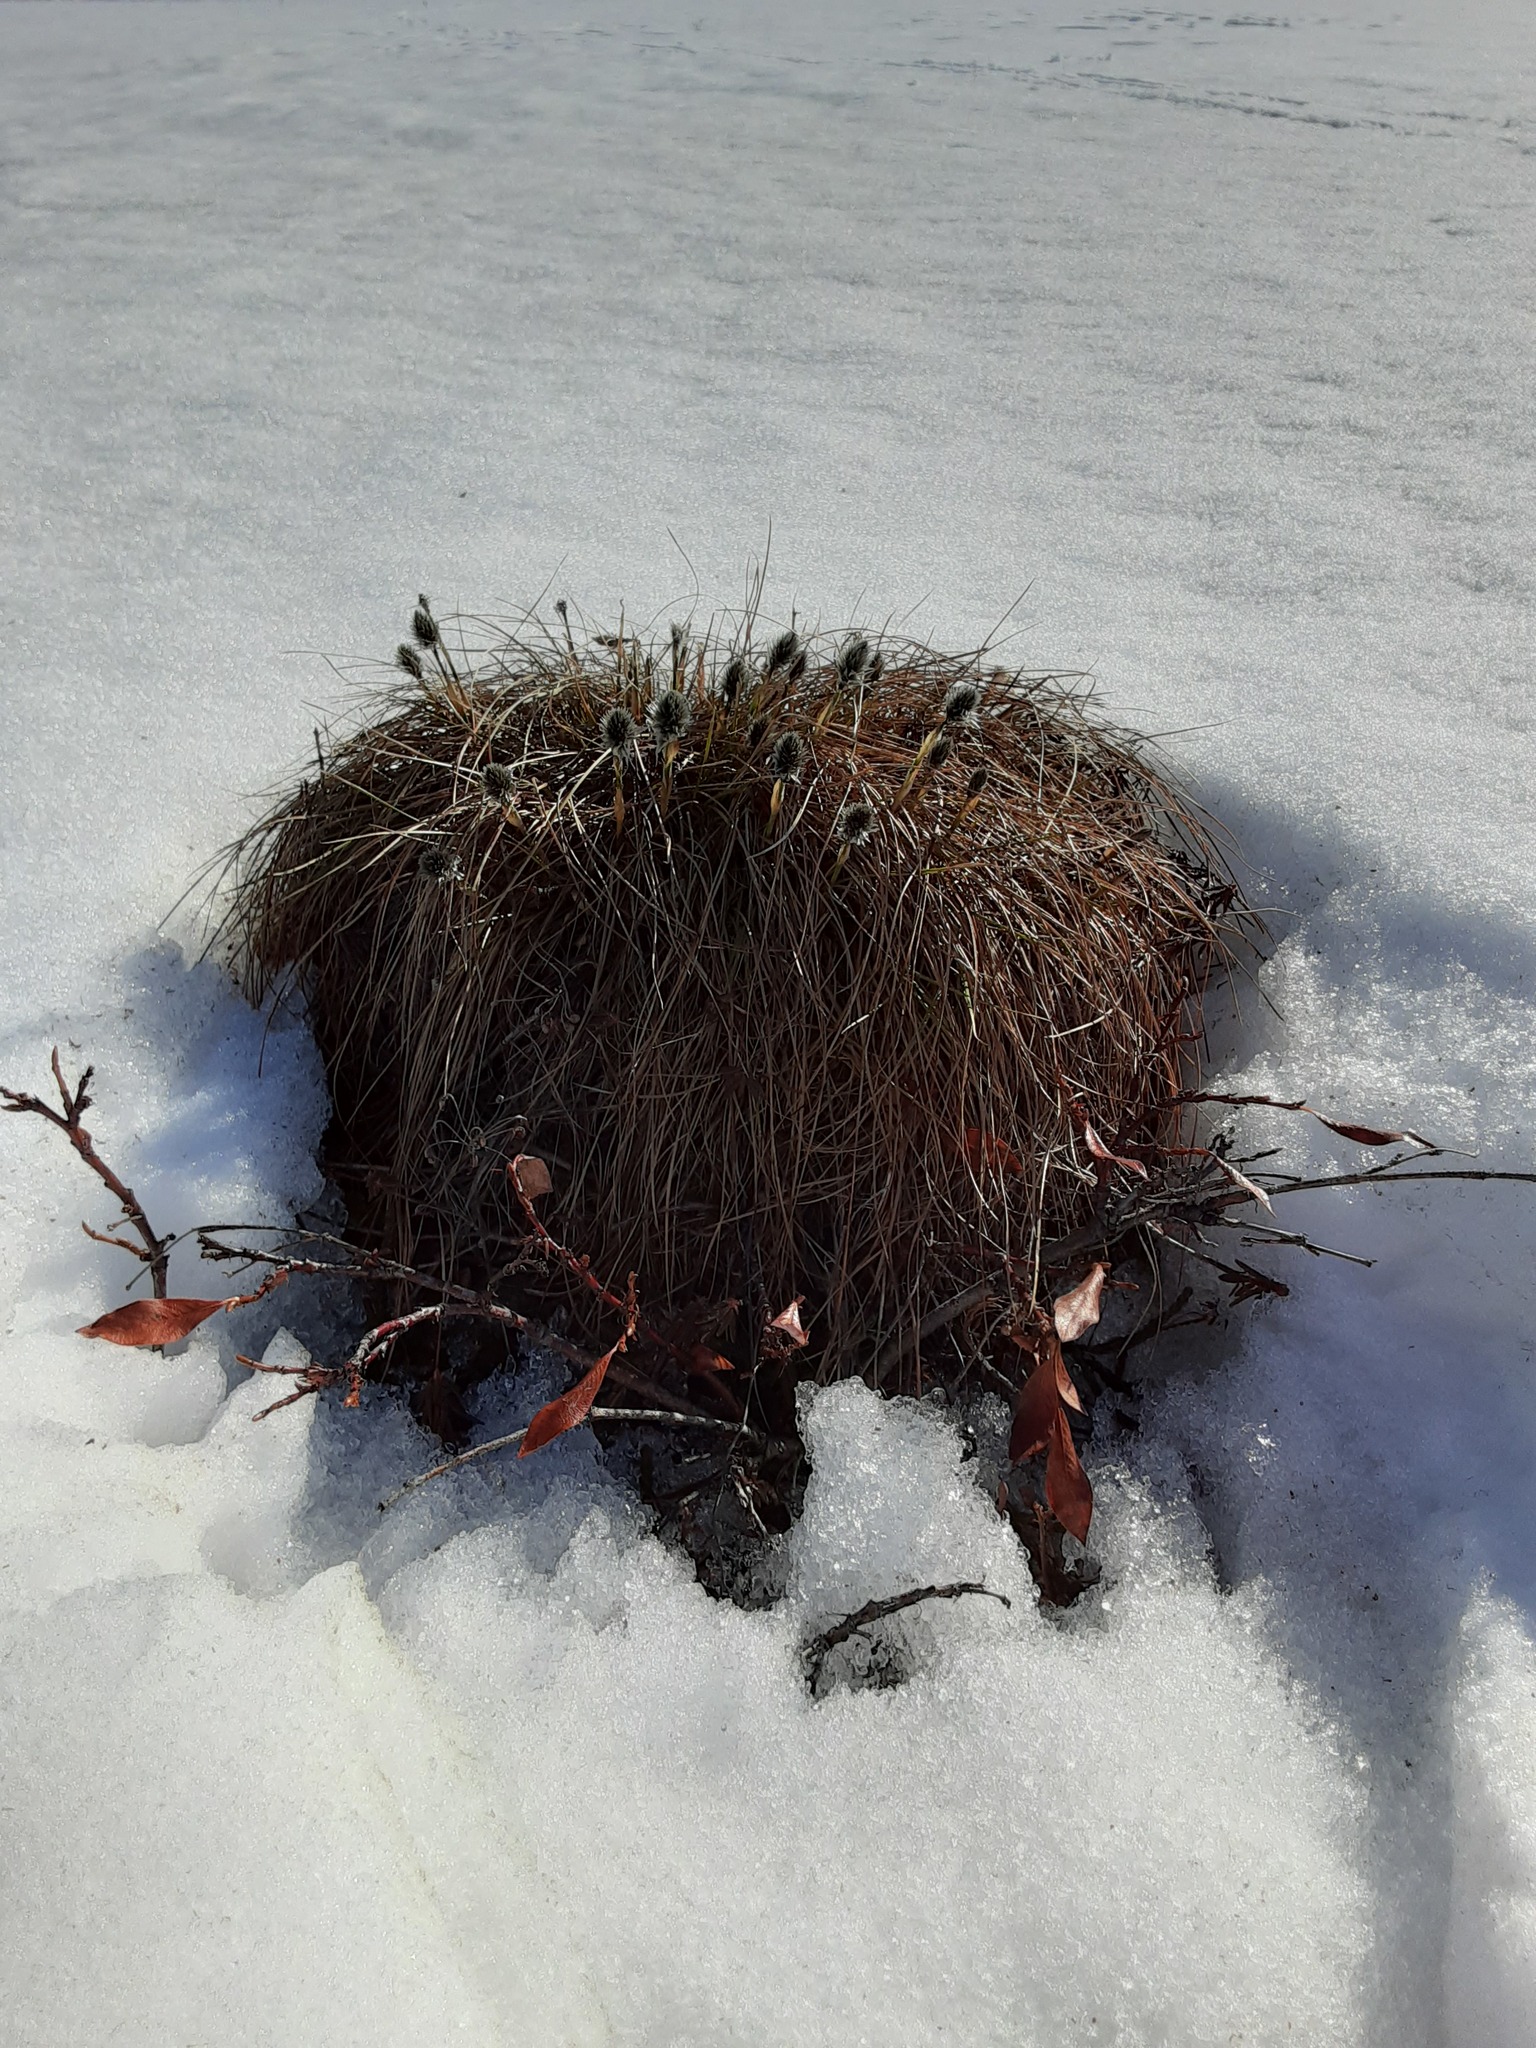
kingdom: Plantae
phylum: Tracheophyta
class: Liliopsida
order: Poales
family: Cyperaceae
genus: Eriophorum
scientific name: Eriophorum vaginatum
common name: Hare's-tail cottongrass
